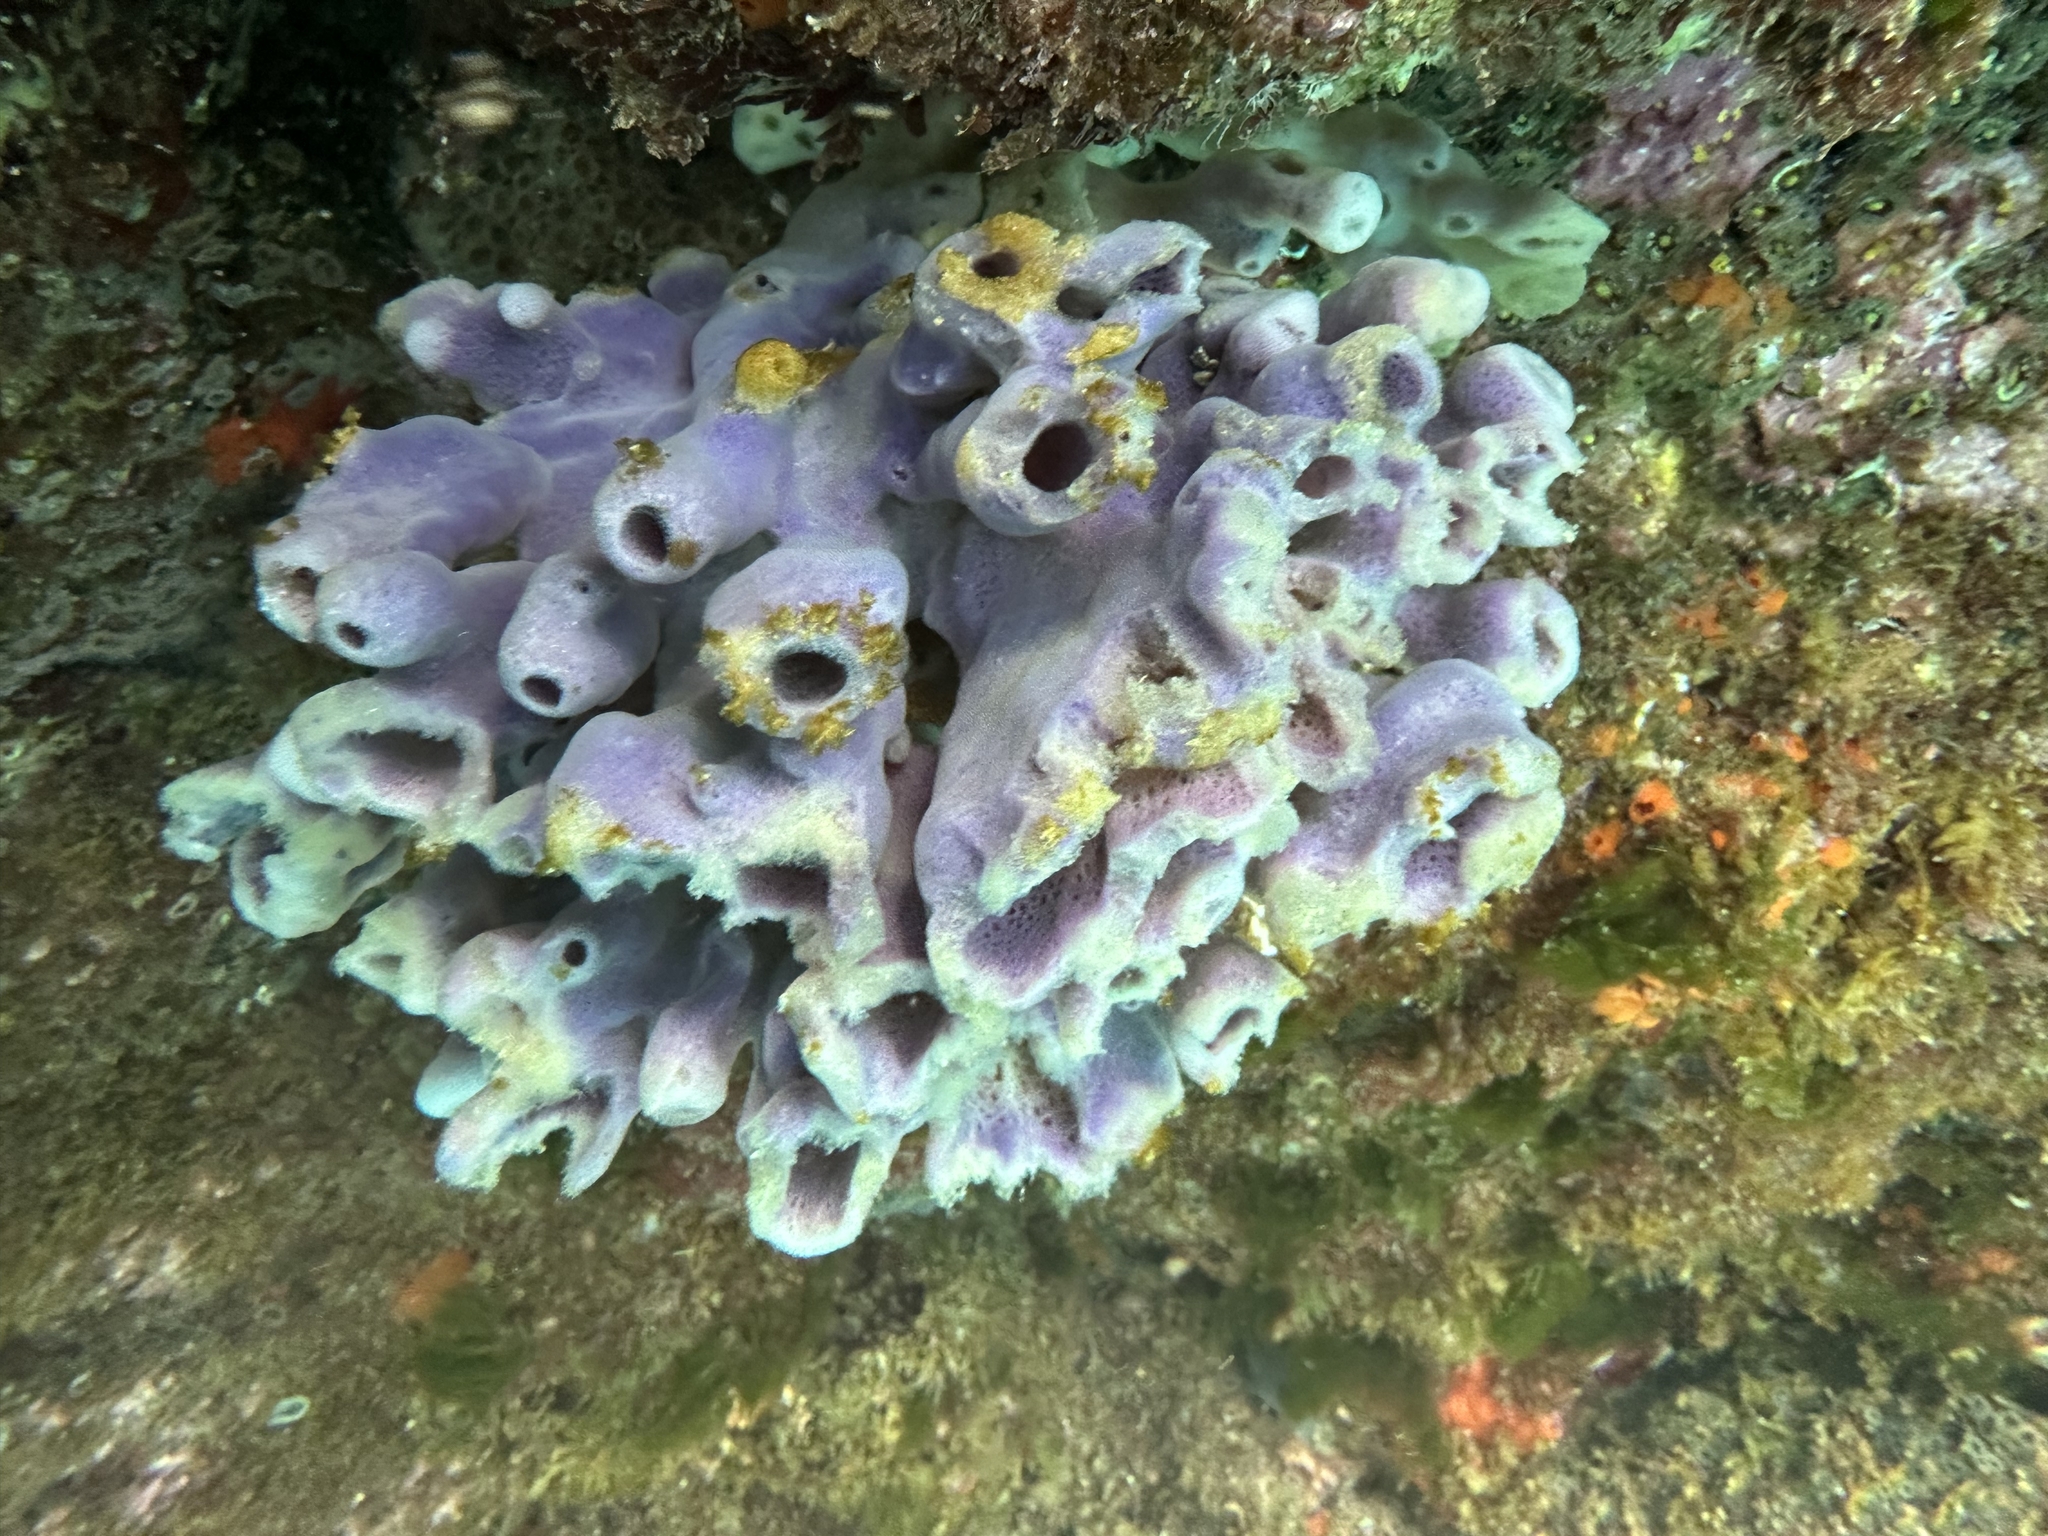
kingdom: Animalia
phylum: Porifera
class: Demospongiae
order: Haplosclerida
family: Callyspongiidae
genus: Callyspongia
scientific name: Callyspongia annulata
